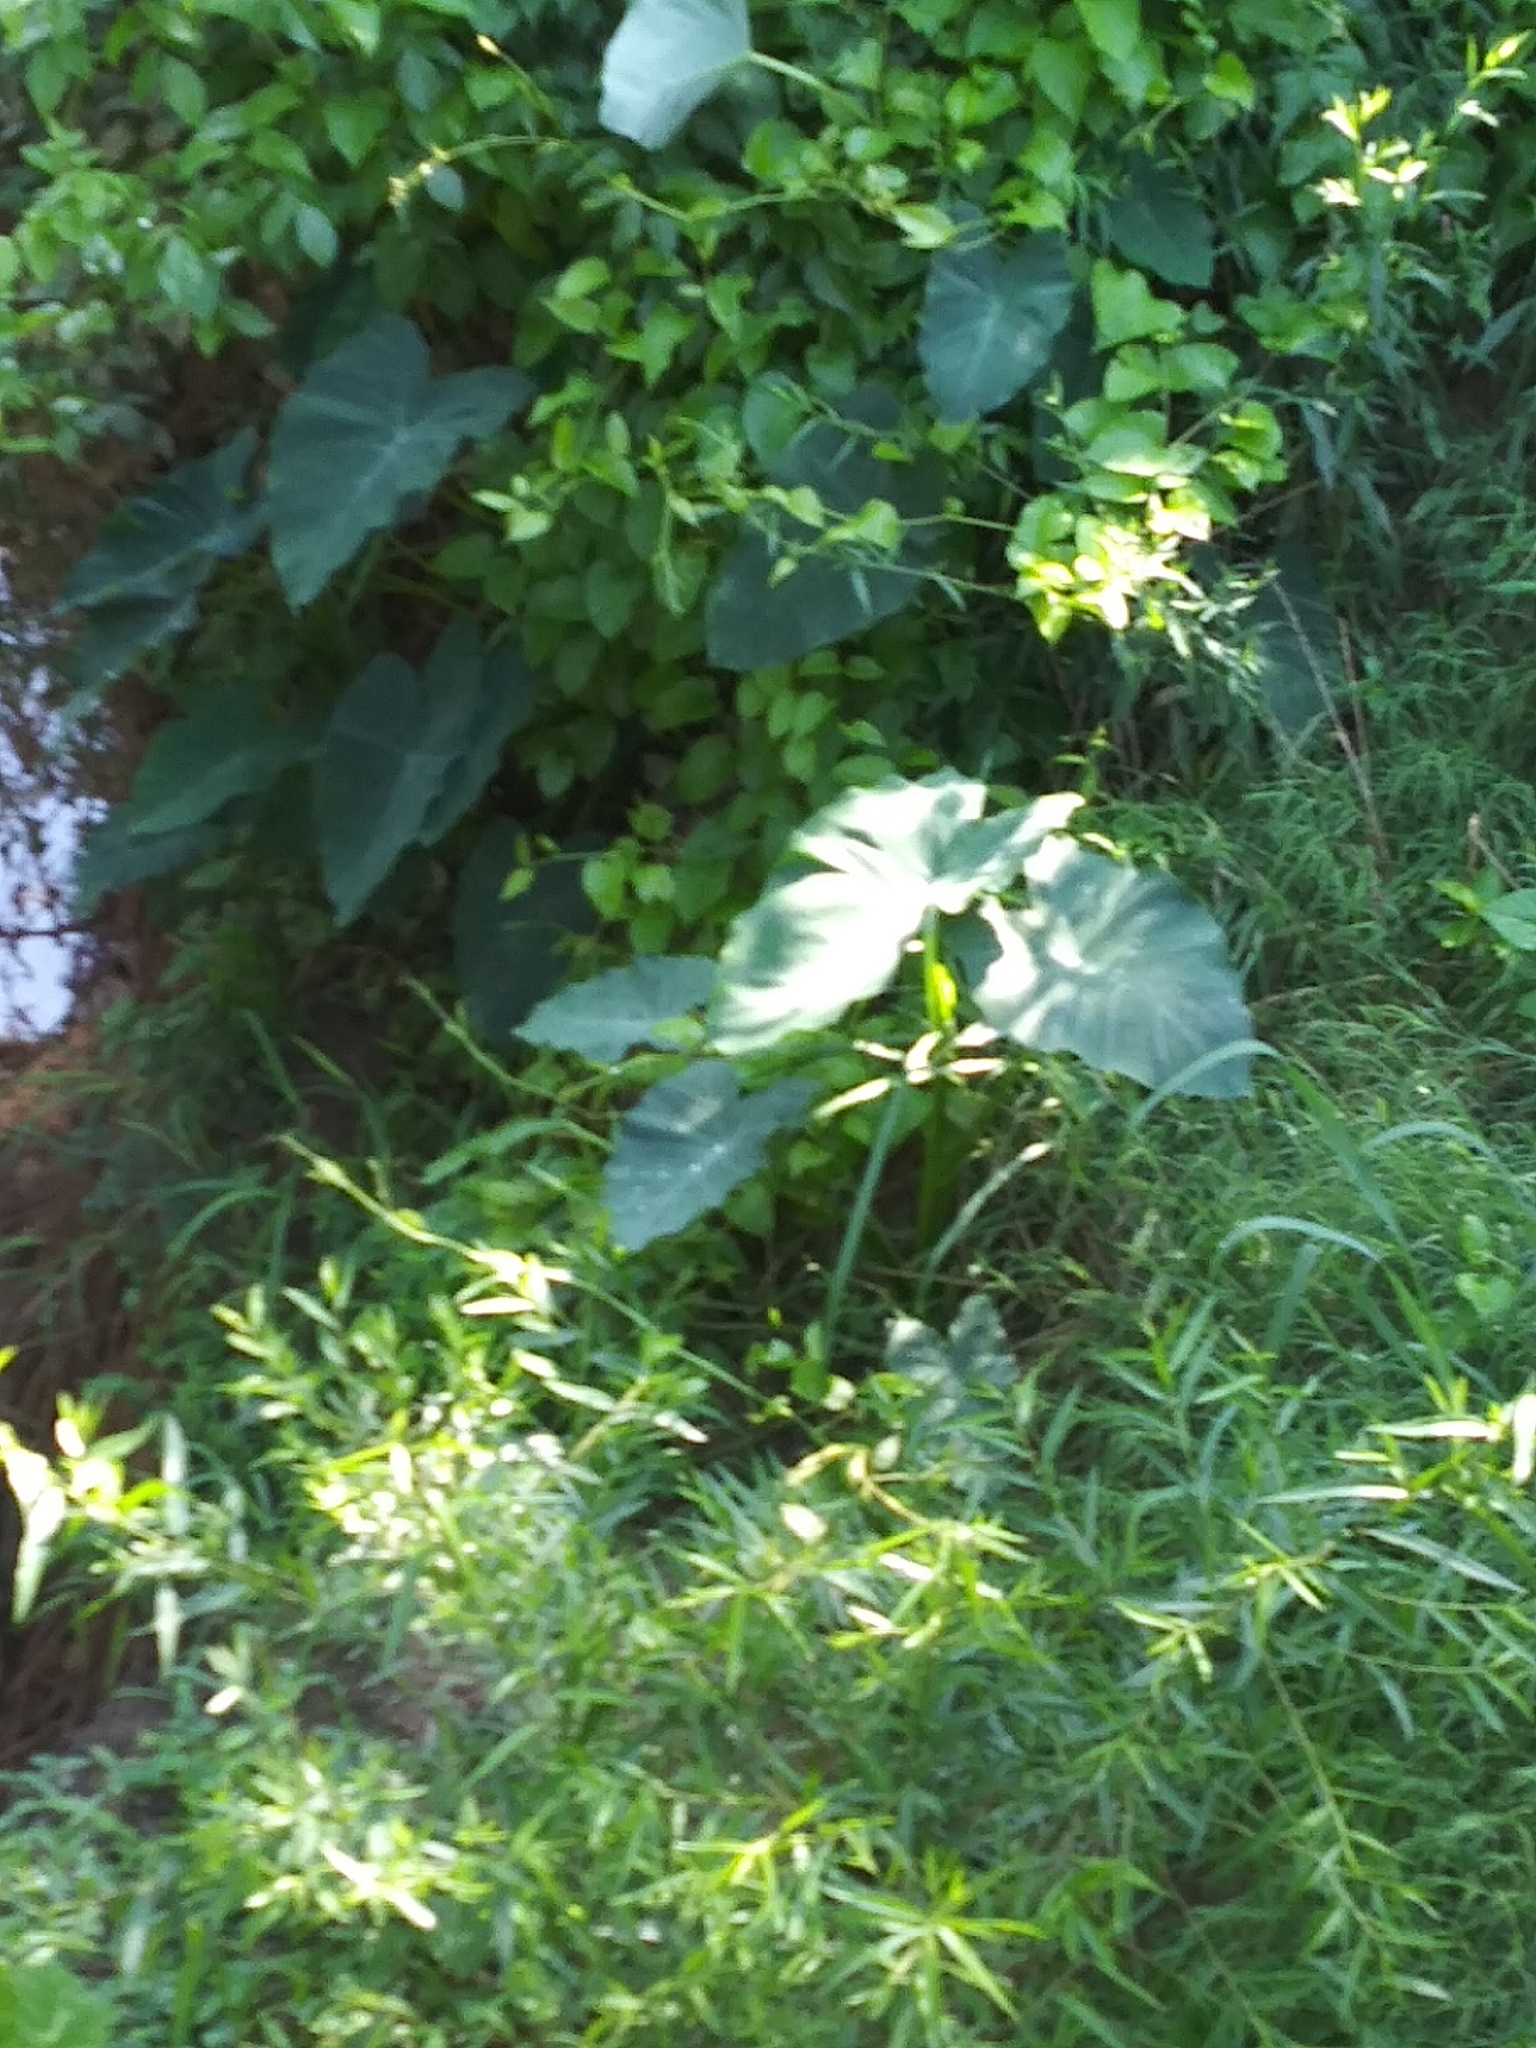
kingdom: Plantae
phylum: Tracheophyta
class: Liliopsida
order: Alismatales
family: Araceae
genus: Colocasia
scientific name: Colocasia esculenta
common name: Taro
